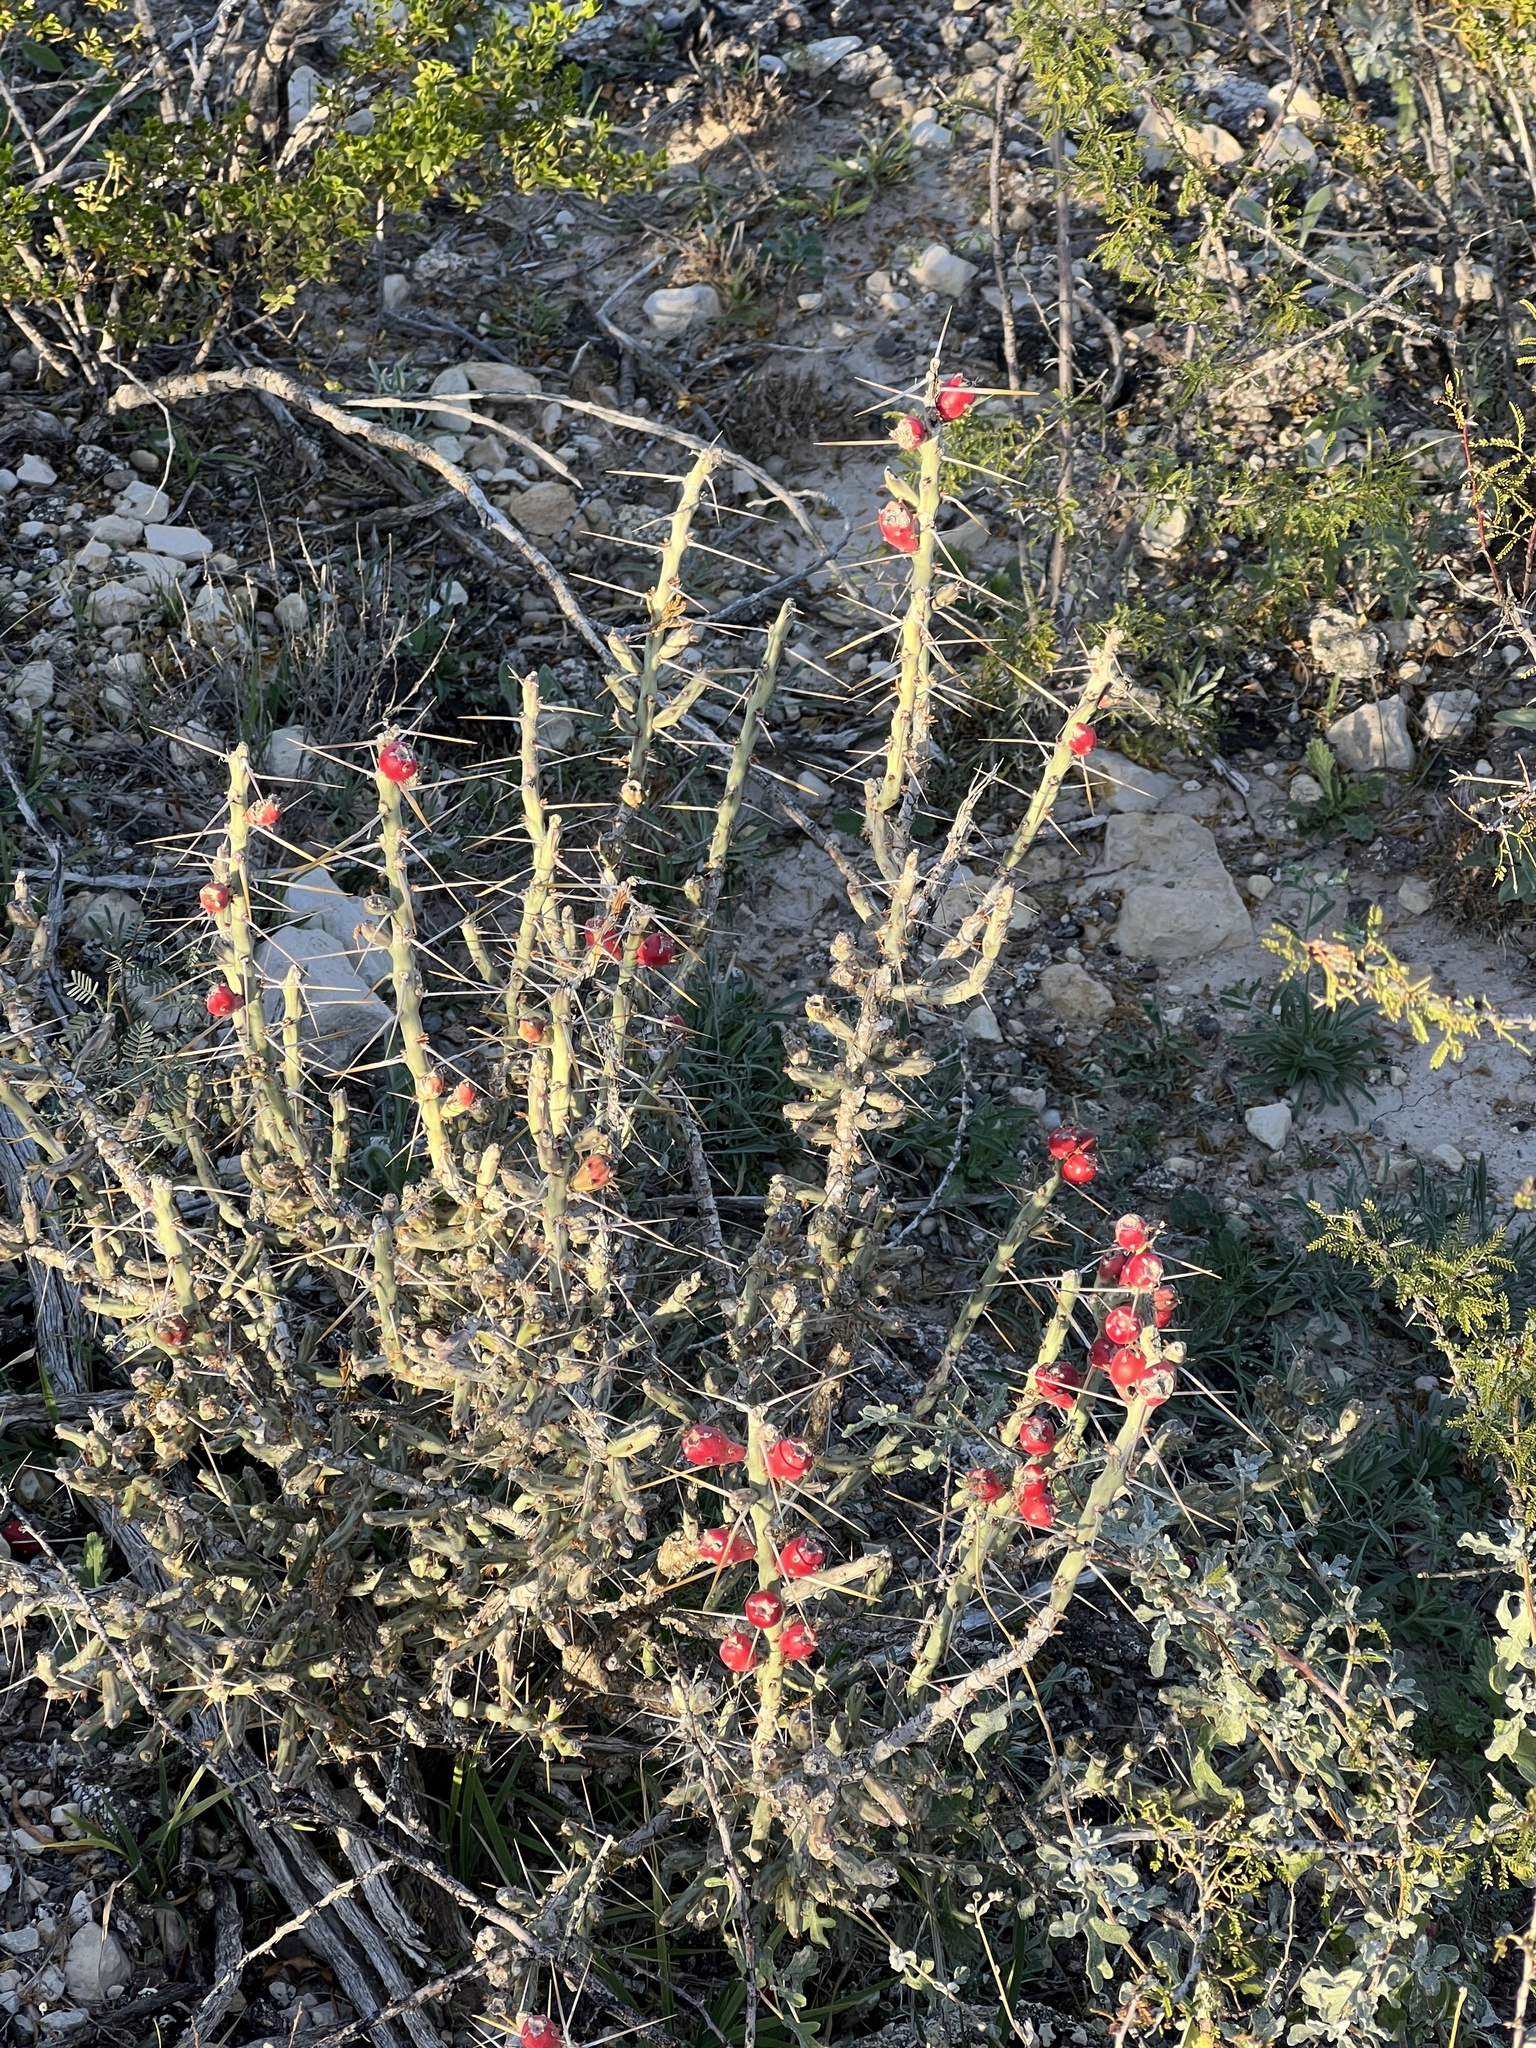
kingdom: Plantae
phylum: Tracheophyta
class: Magnoliopsida
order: Caryophyllales
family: Cactaceae
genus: Cylindropuntia
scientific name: Cylindropuntia leptocaulis
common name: Christmas cactus
